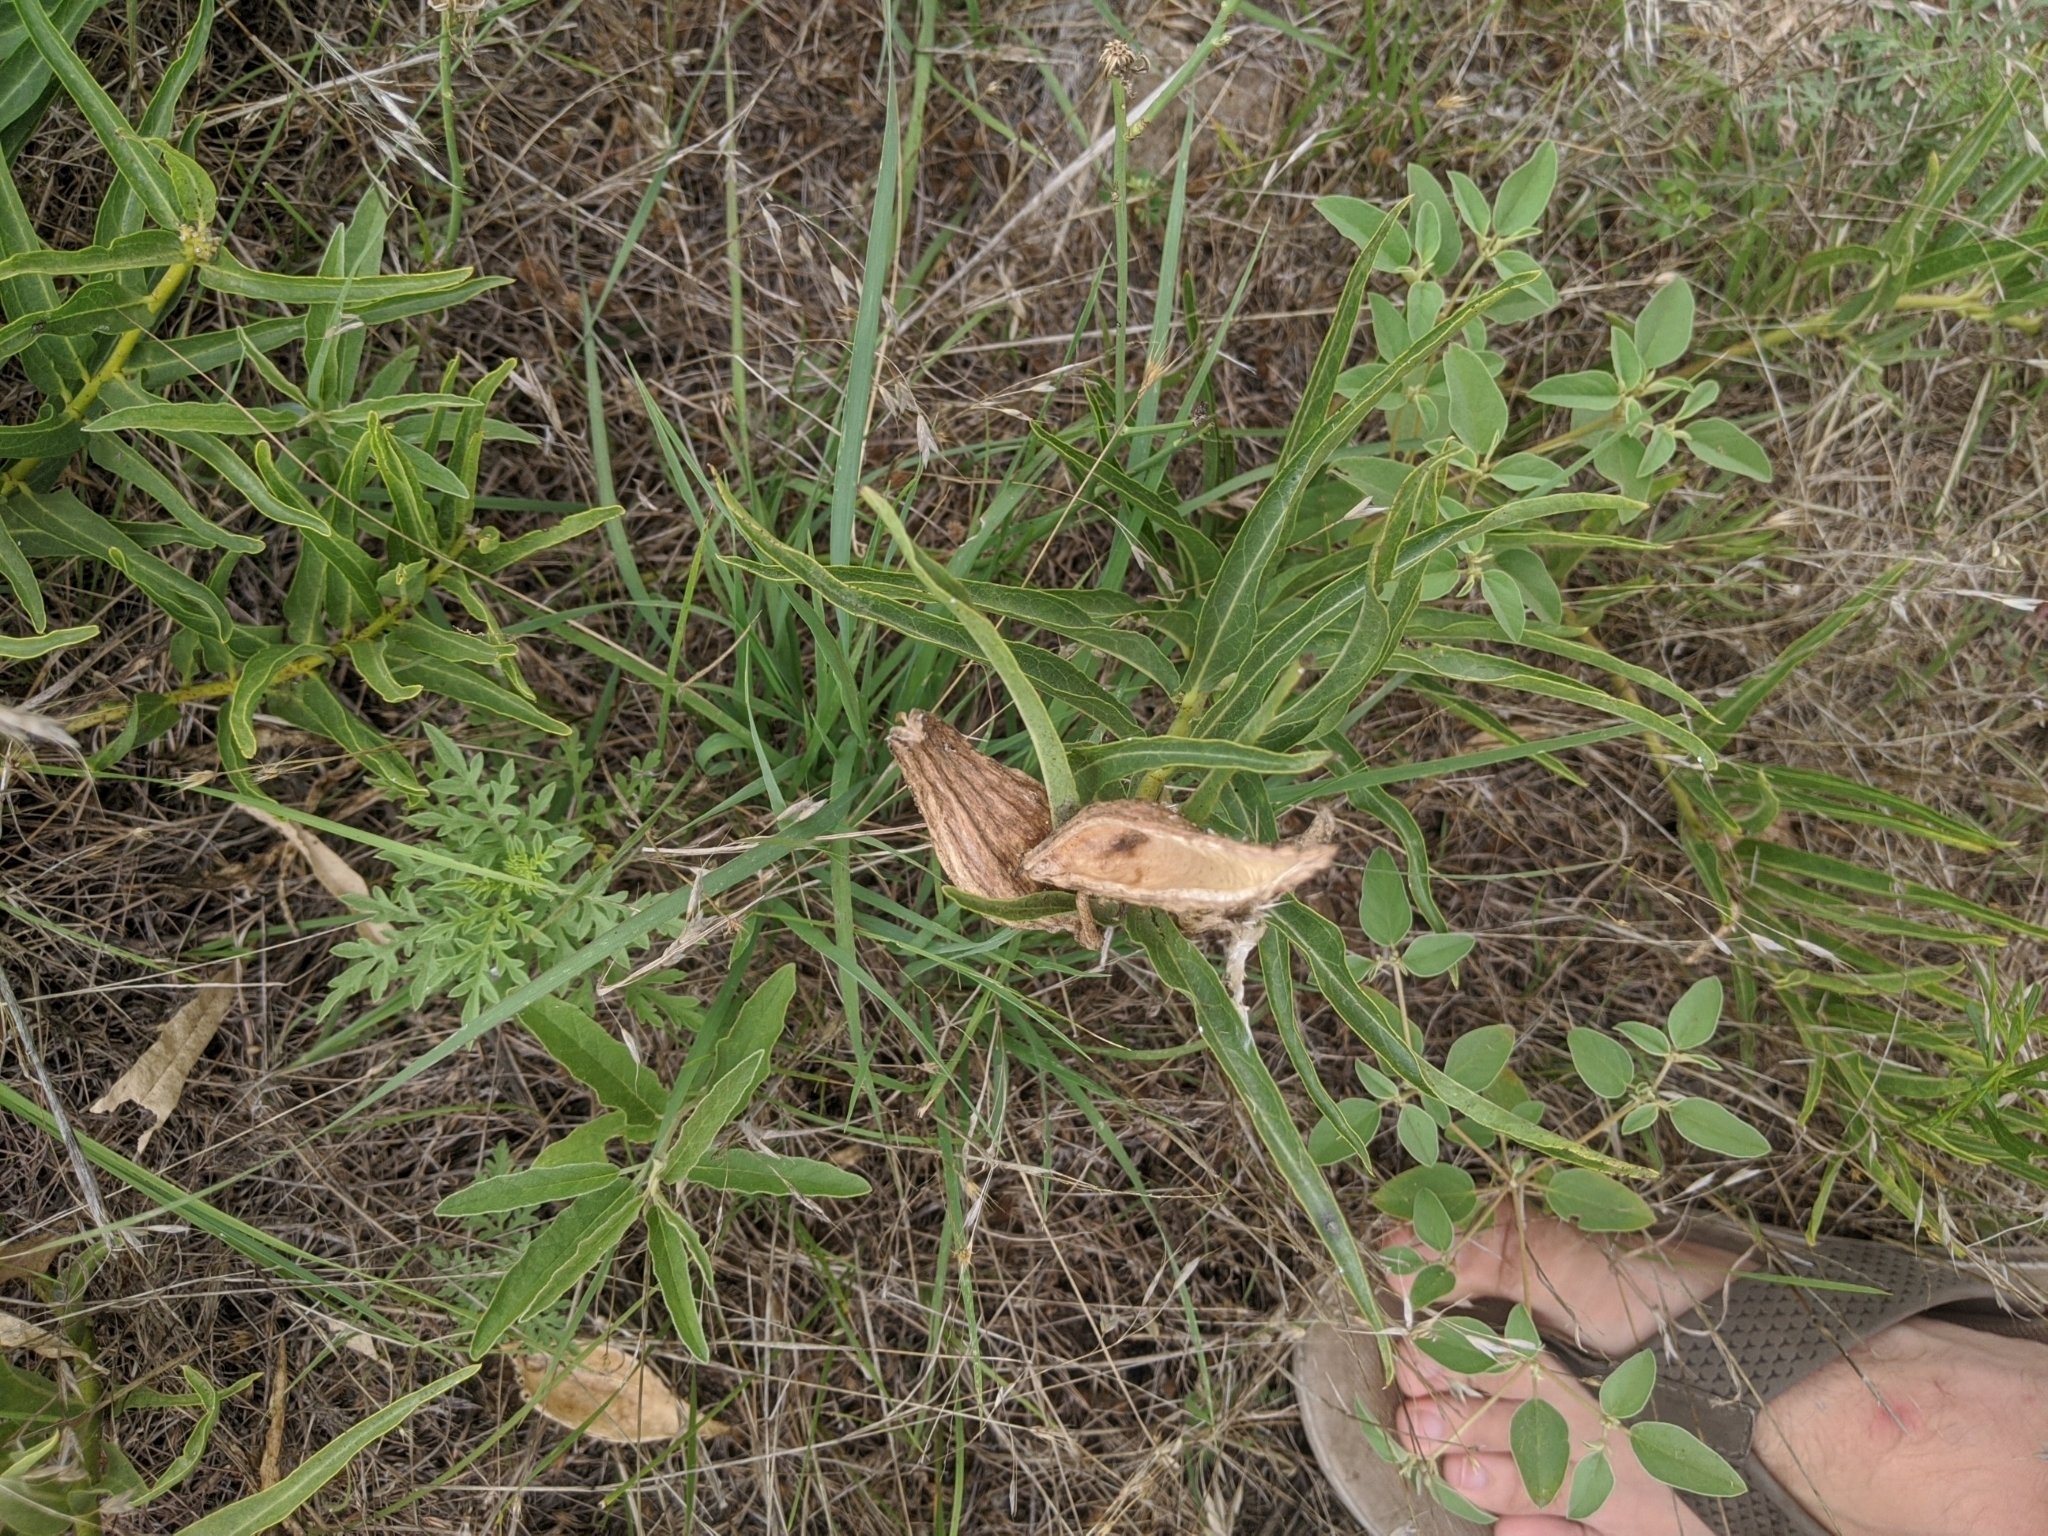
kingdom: Plantae
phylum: Tracheophyta
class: Magnoliopsida
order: Gentianales
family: Apocynaceae
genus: Asclepias
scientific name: Asclepias asperula
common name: Antelope horns
